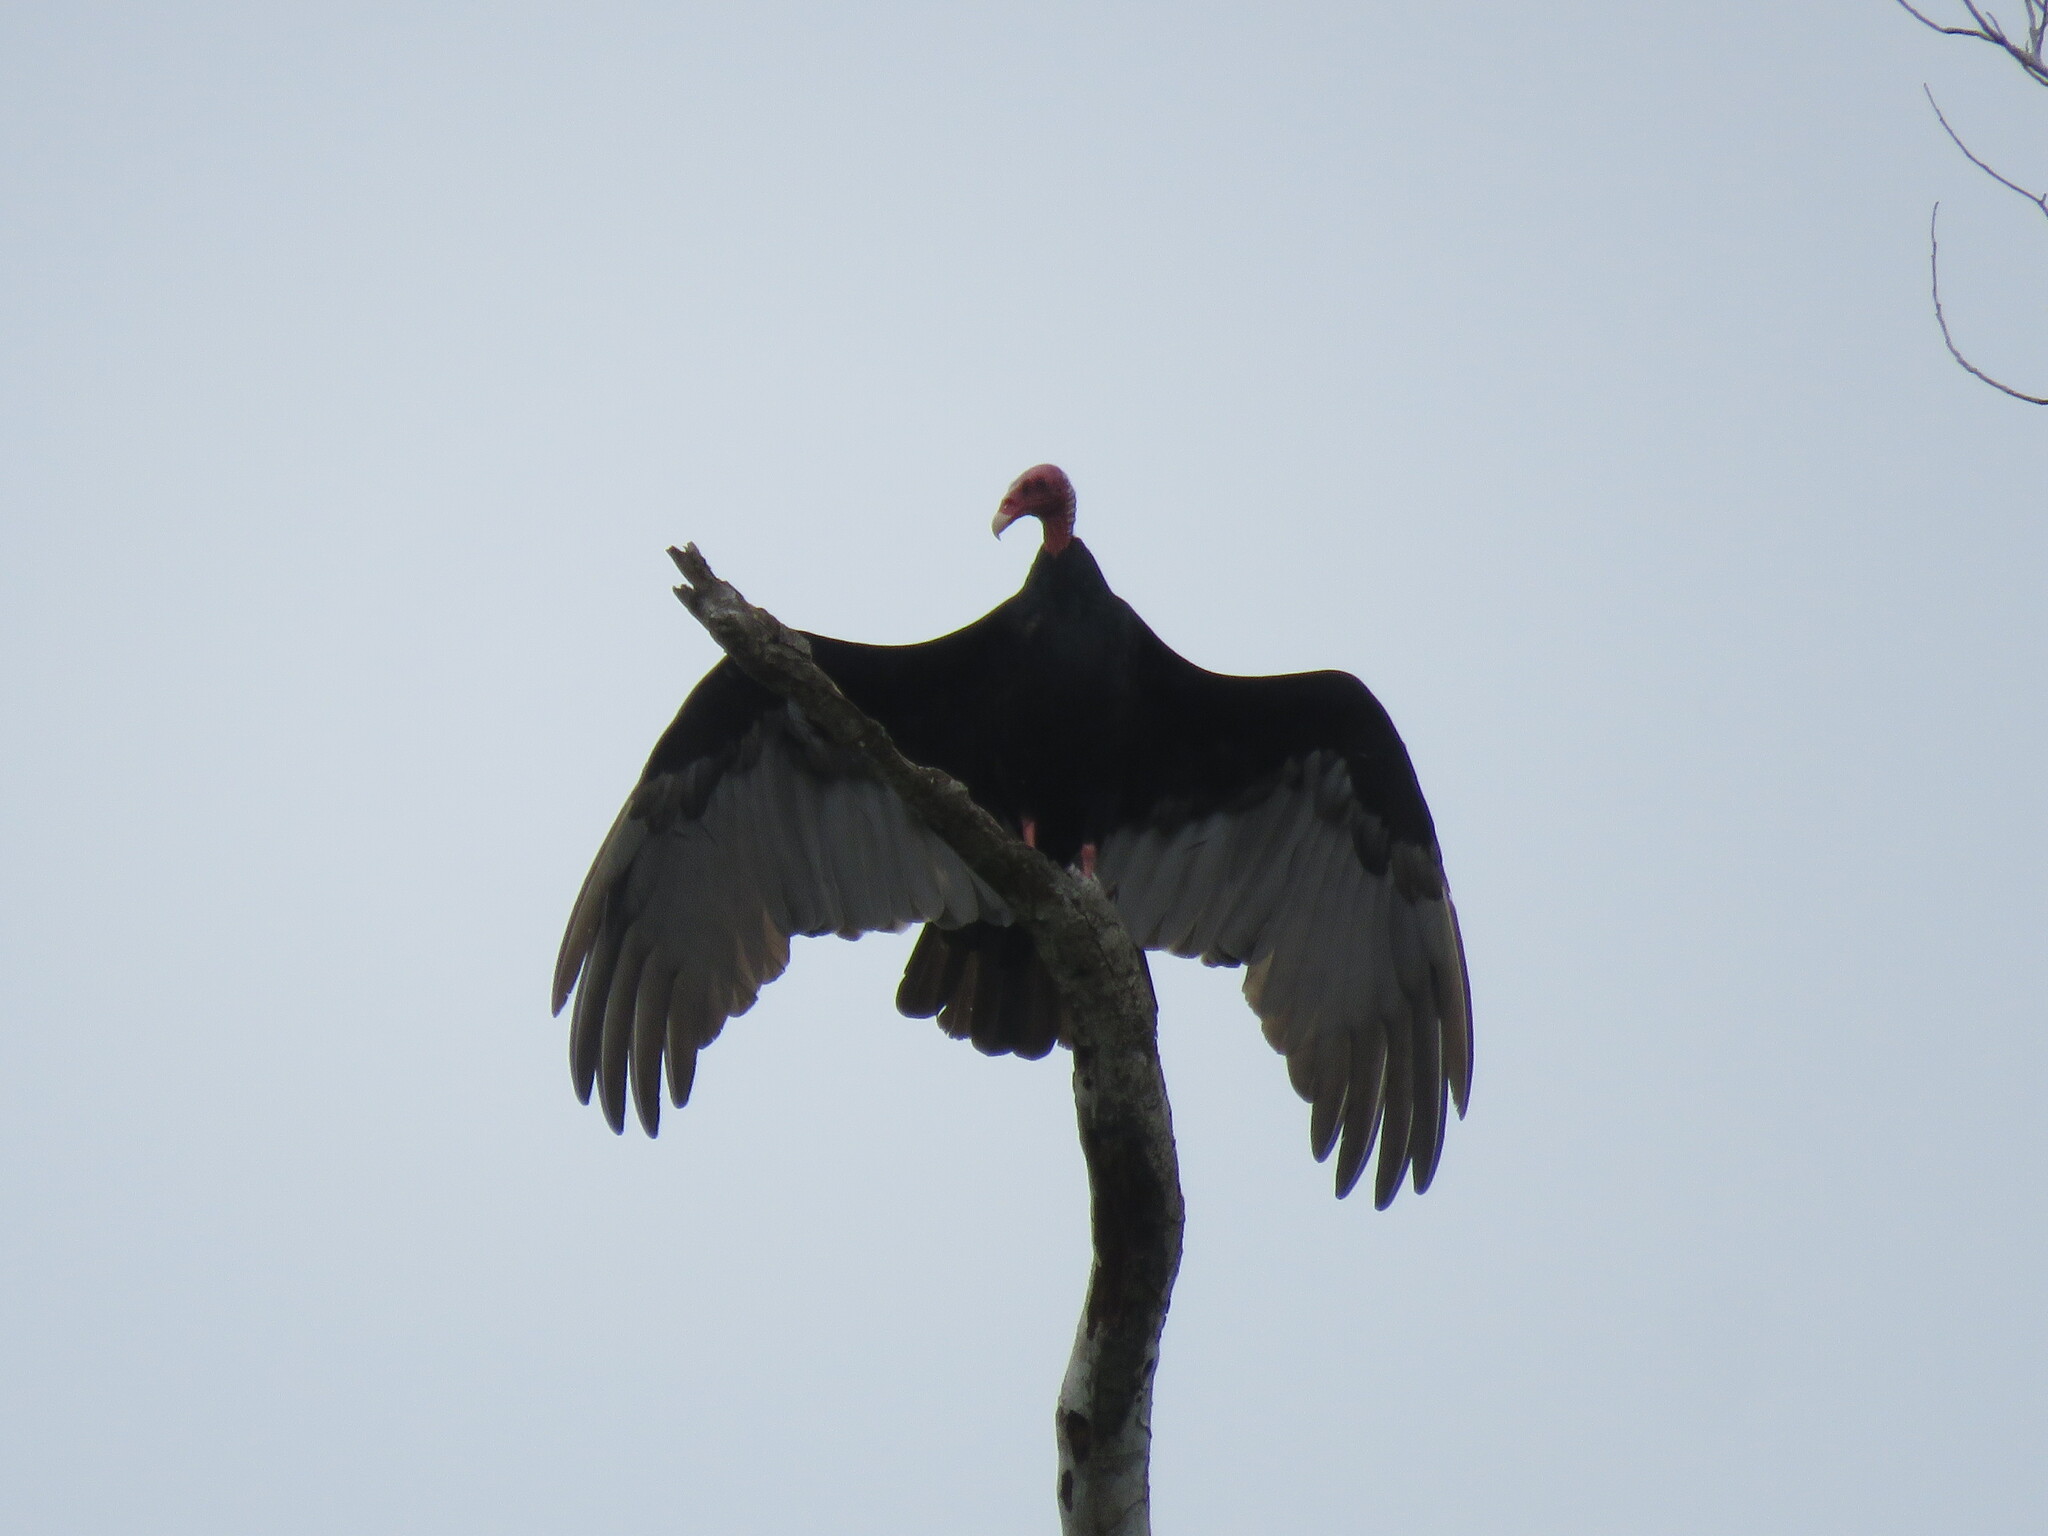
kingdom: Animalia
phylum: Chordata
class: Aves
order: Accipitriformes
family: Cathartidae
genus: Cathartes
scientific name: Cathartes aura
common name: Turkey vulture
